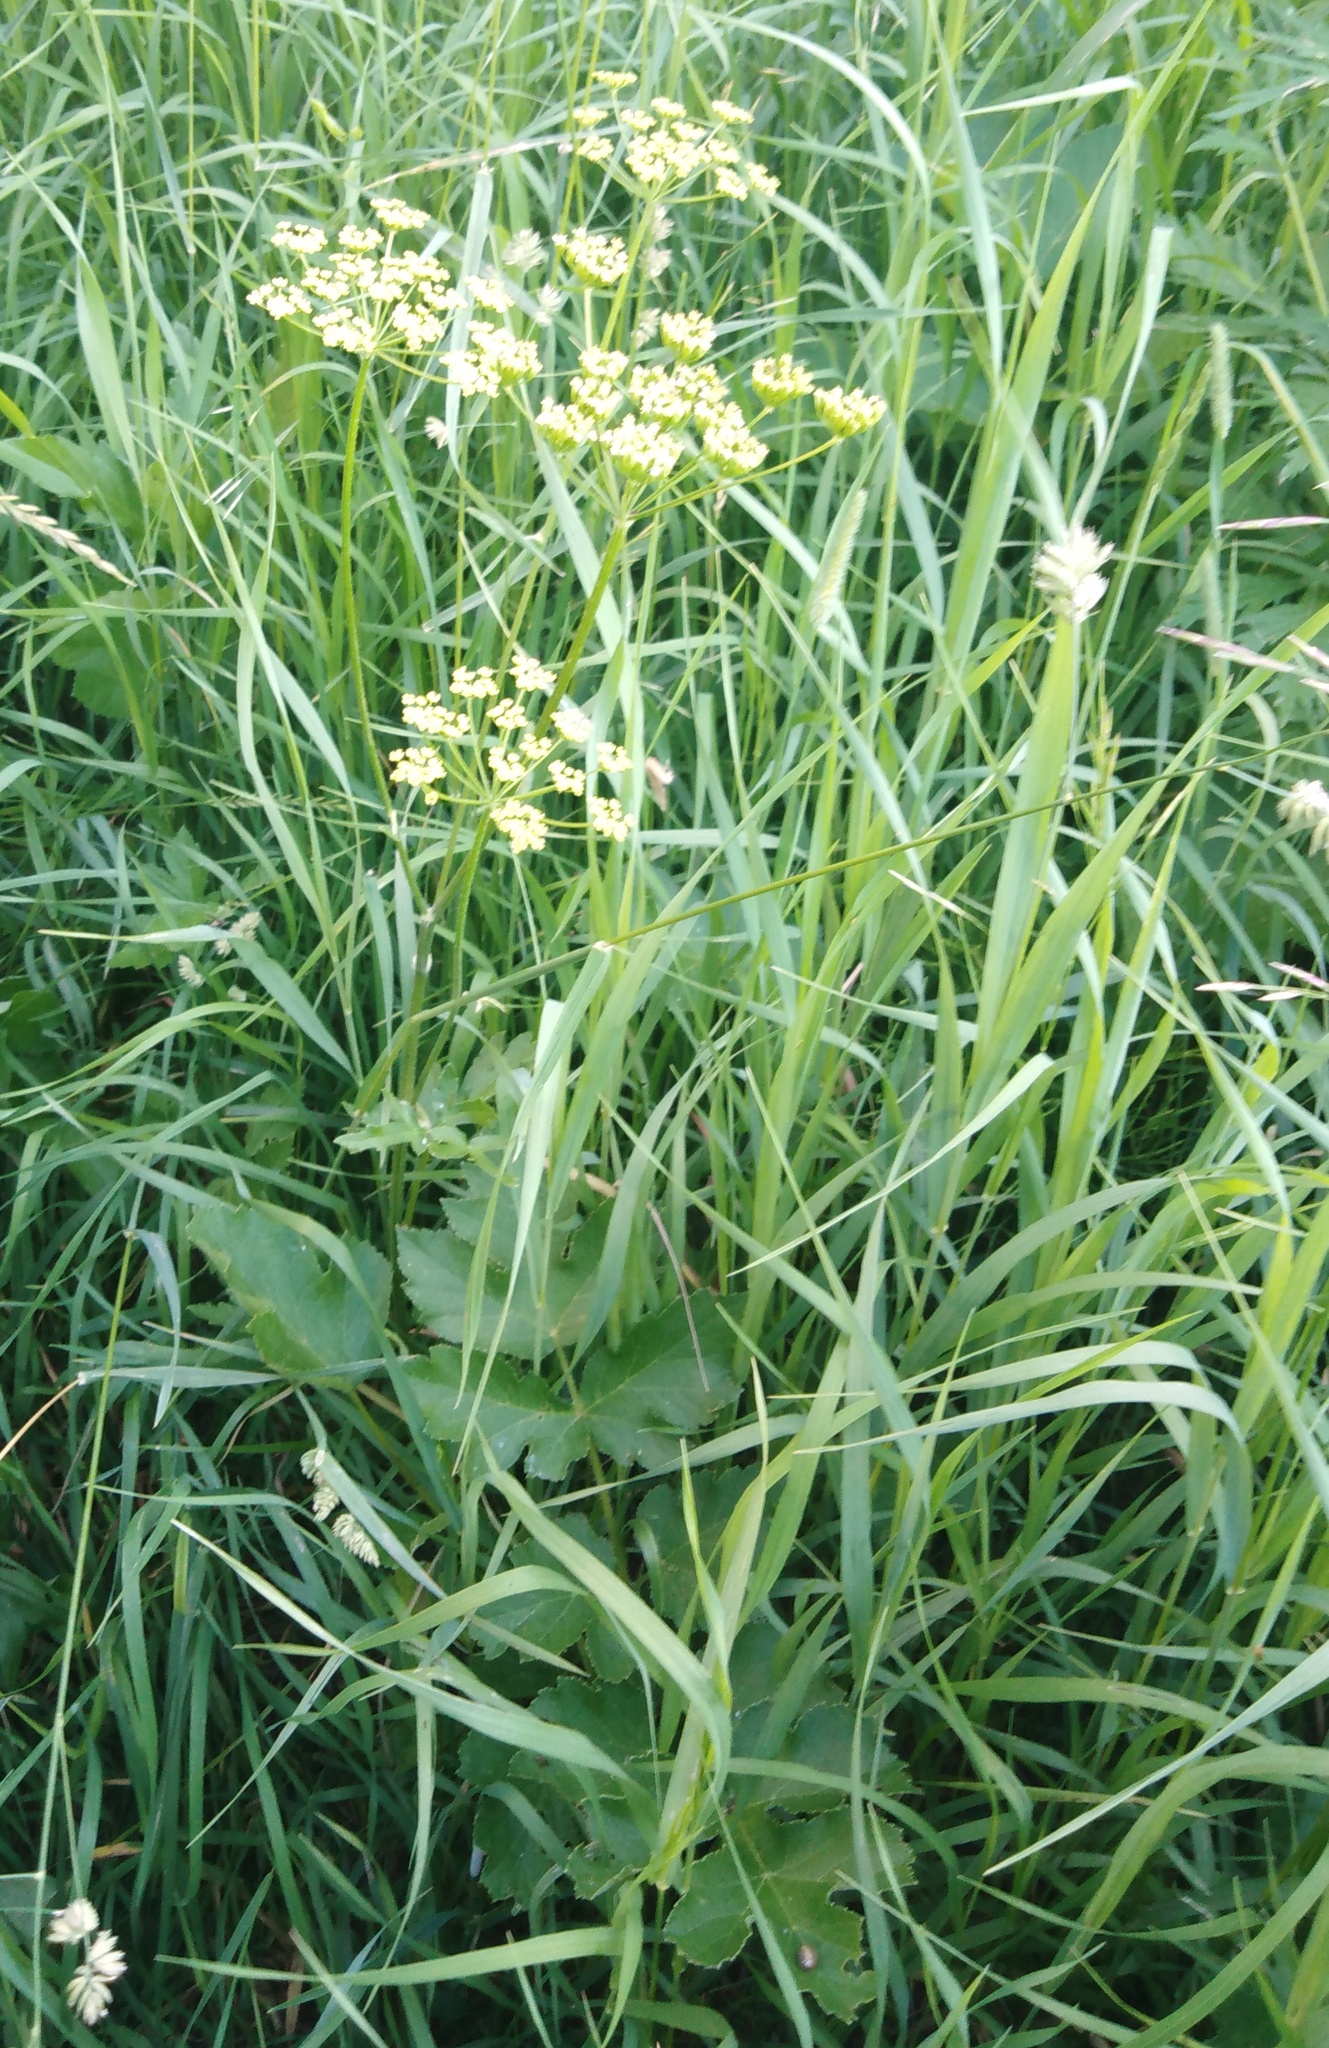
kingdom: Plantae
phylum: Tracheophyta
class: Magnoliopsida
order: Apiales
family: Apiaceae
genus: Heracleum
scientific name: Heracleum sphondylium
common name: Hogweed
